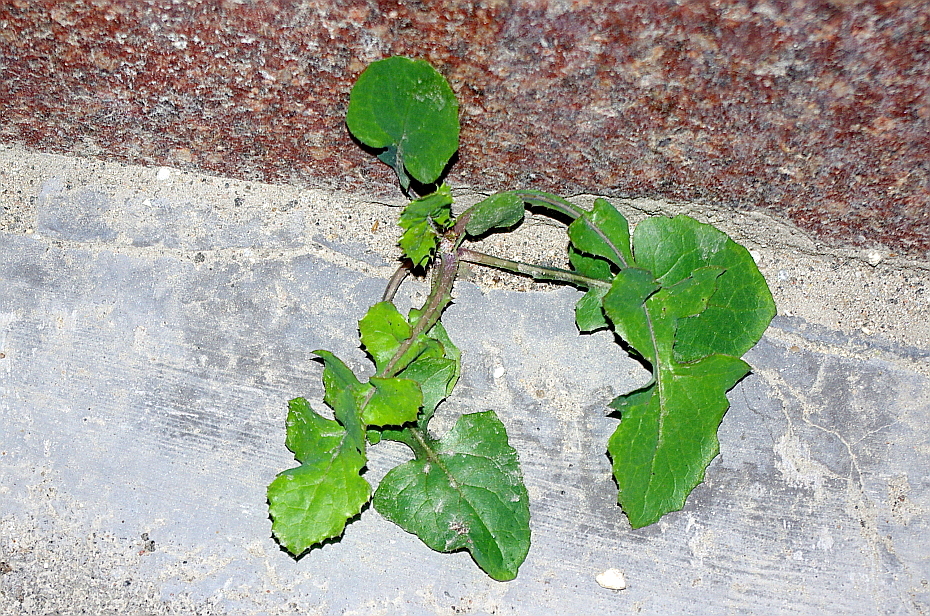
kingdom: Plantae
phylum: Tracheophyta
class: Magnoliopsida
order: Asterales
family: Asteraceae
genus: Sonchus
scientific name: Sonchus oleraceus
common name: Common sowthistle
